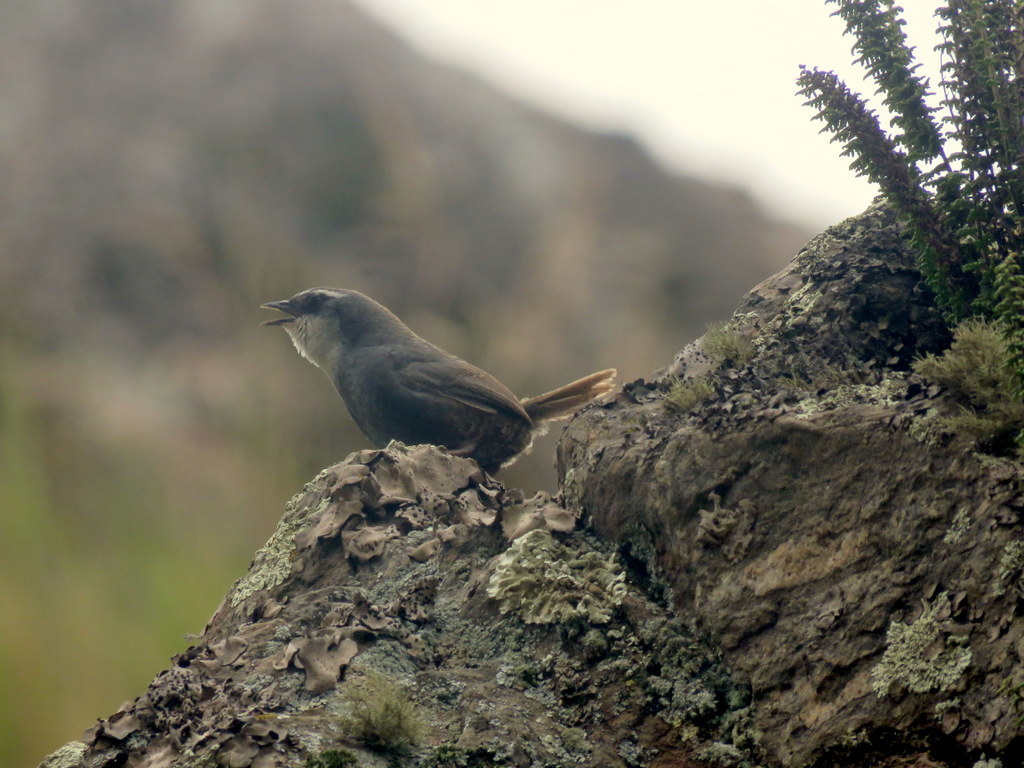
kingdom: Animalia
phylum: Chordata
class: Aves
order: Passeriformes
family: Rhinocryptidae
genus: Scytalopus
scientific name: Scytalopus superciliaris
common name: White-browed tapaculo
